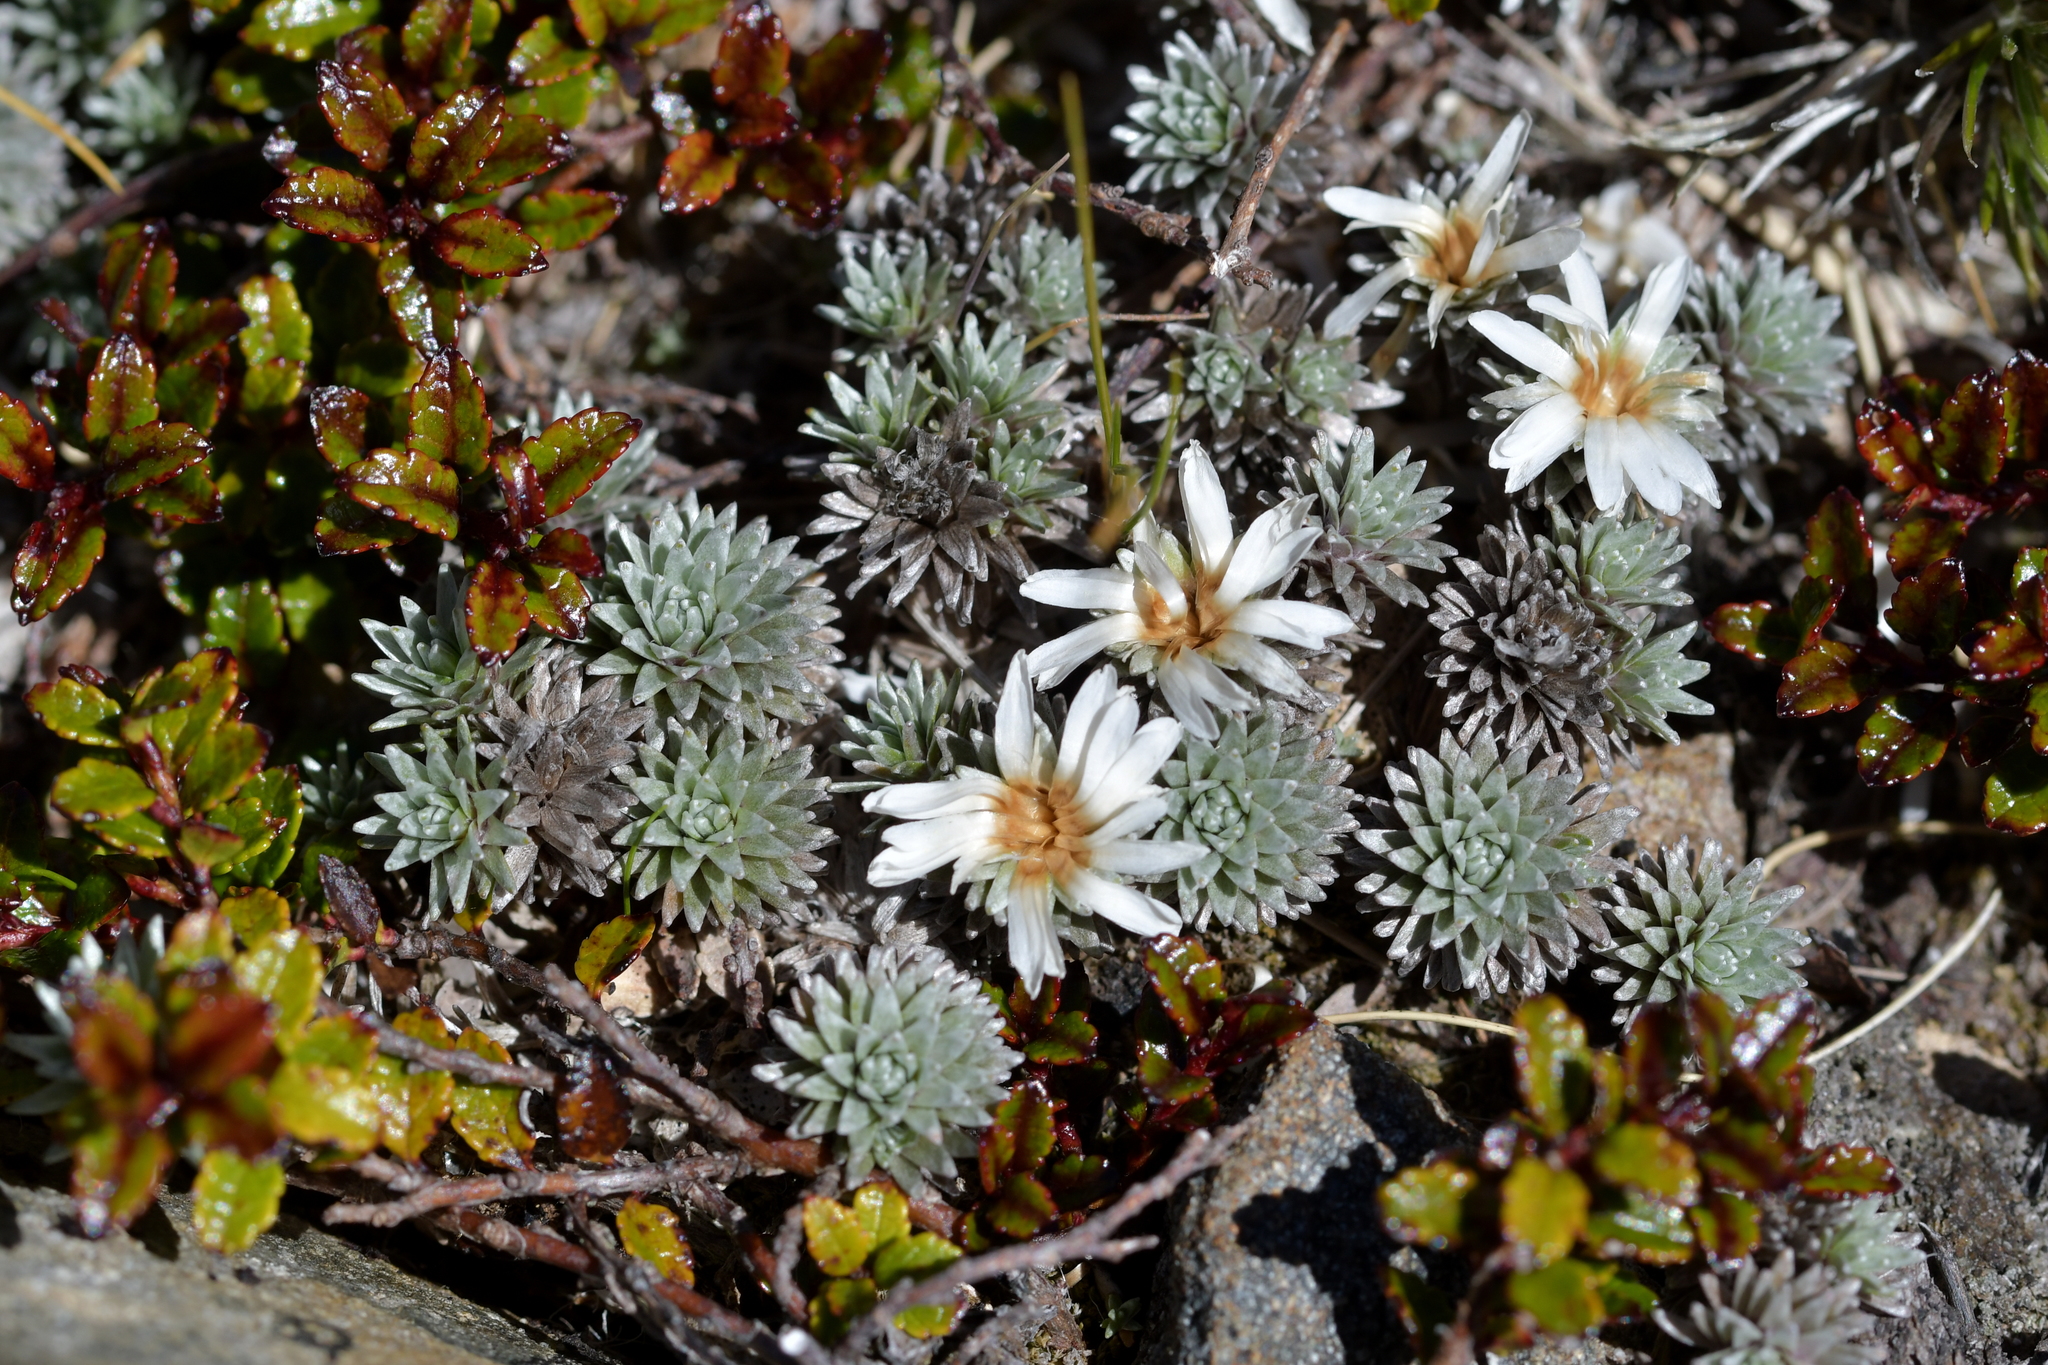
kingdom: Plantae
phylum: Tracheophyta
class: Magnoliopsida
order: Asterales
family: Asteraceae
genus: Raoulia
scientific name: Raoulia grandiflora
